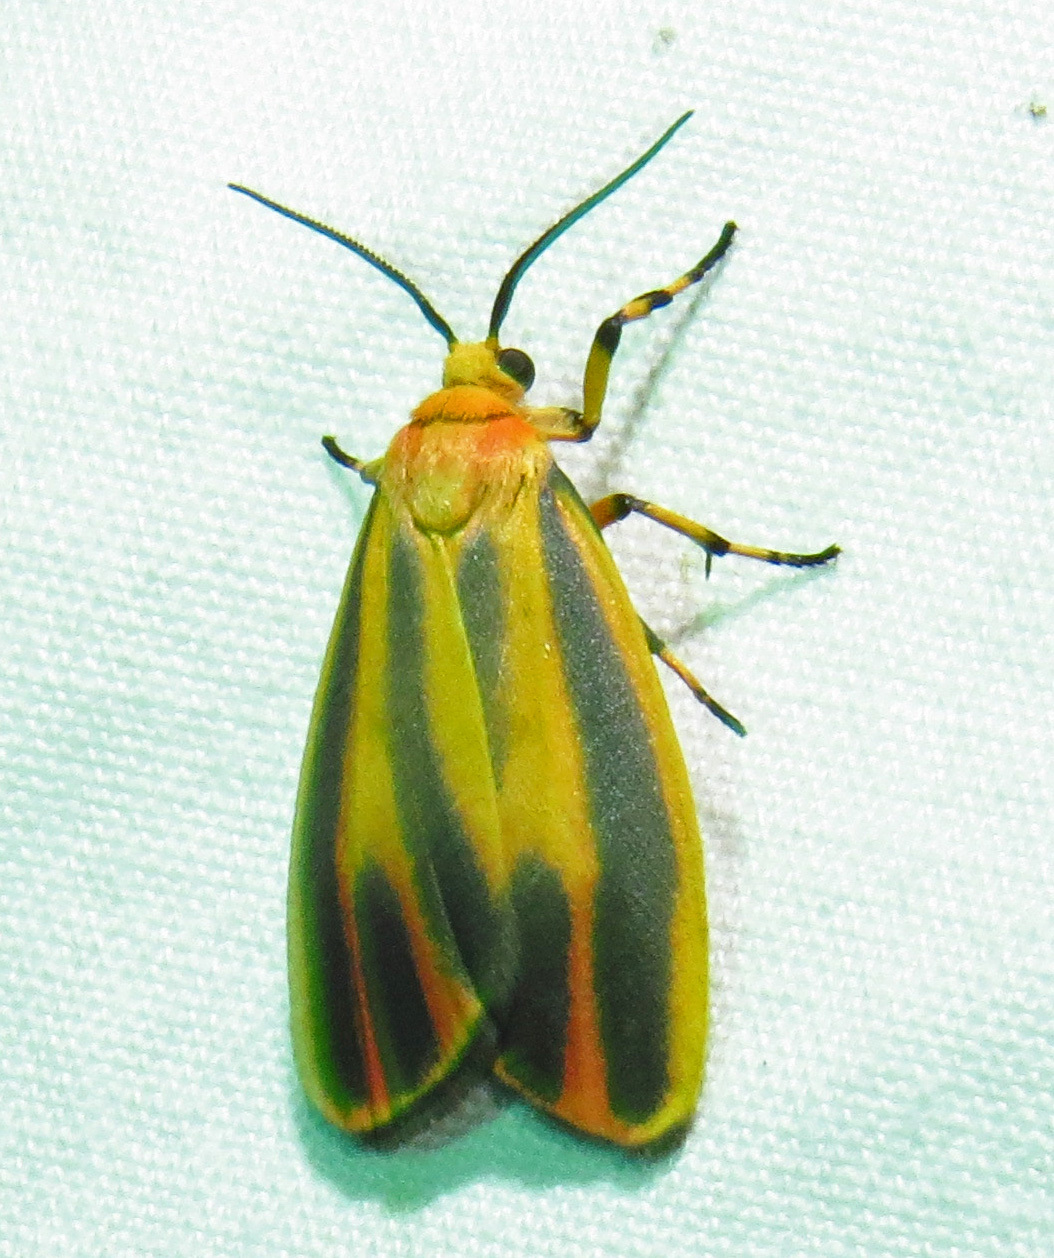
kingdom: Animalia
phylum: Arthropoda
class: Insecta
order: Lepidoptera
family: Erebidae
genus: Hypoprepia
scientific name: Hypoprepia fucosa
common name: Painted lichen moth
